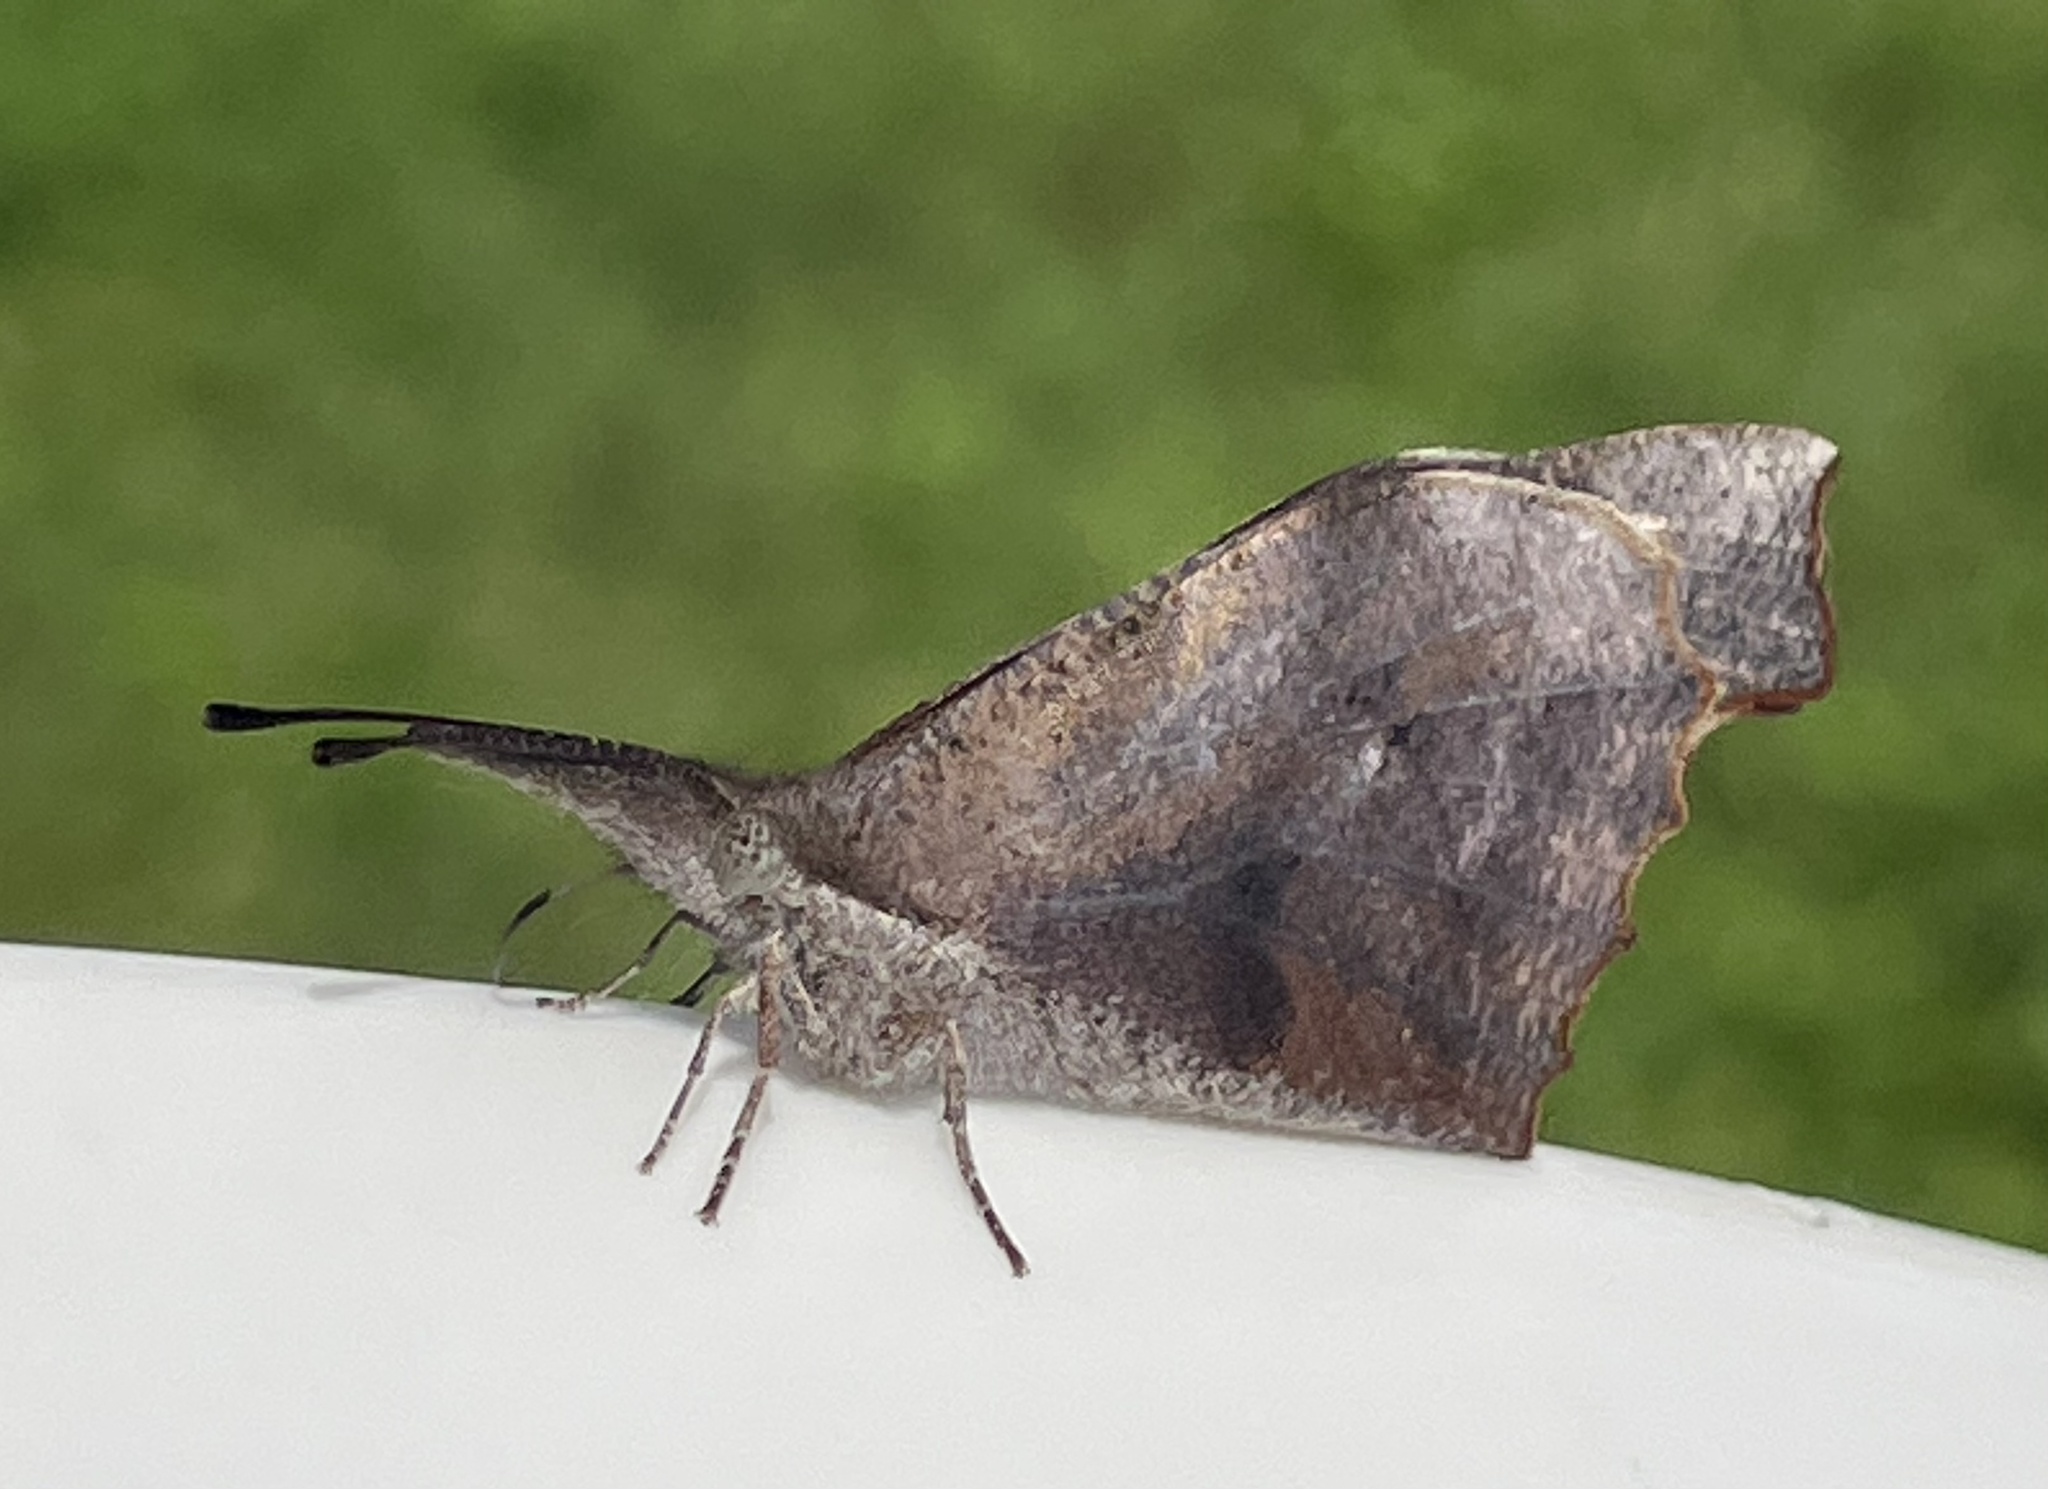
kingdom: Animalia
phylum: Arthropoda
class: Insecta
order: Lepidoptera
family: Nymphalidae
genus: Libytheana
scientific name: Libytheana carinenta
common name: American snout
